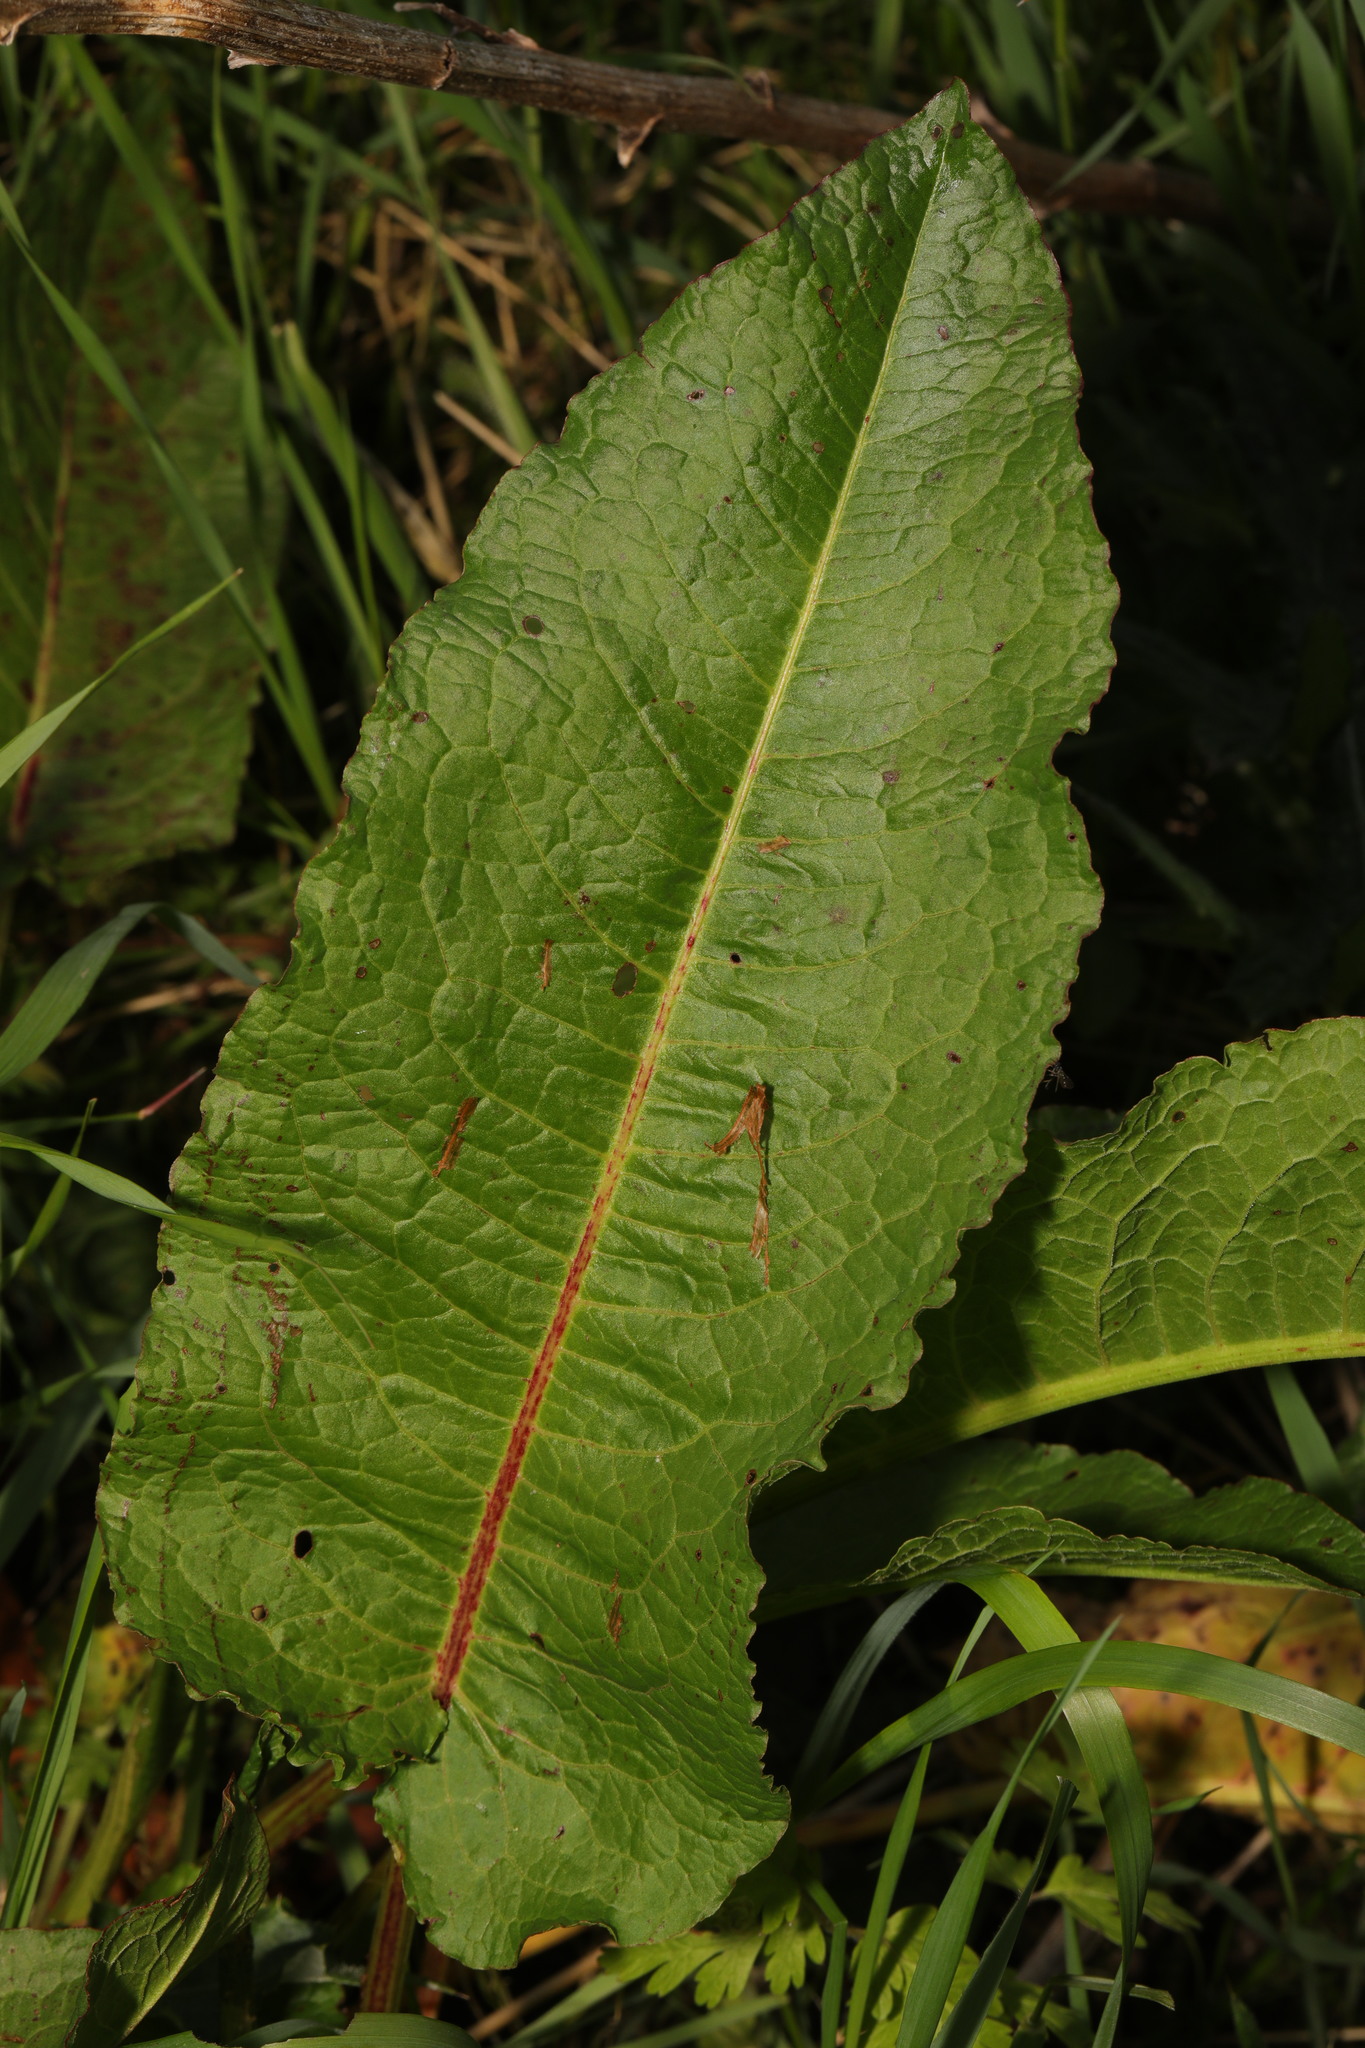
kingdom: Plantae
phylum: Tracheophyta
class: Magnoliopsida
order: Caryophyllales
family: Polygonaceae
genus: Rumex
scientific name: Rumex obtusifolius
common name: Bitter dock
